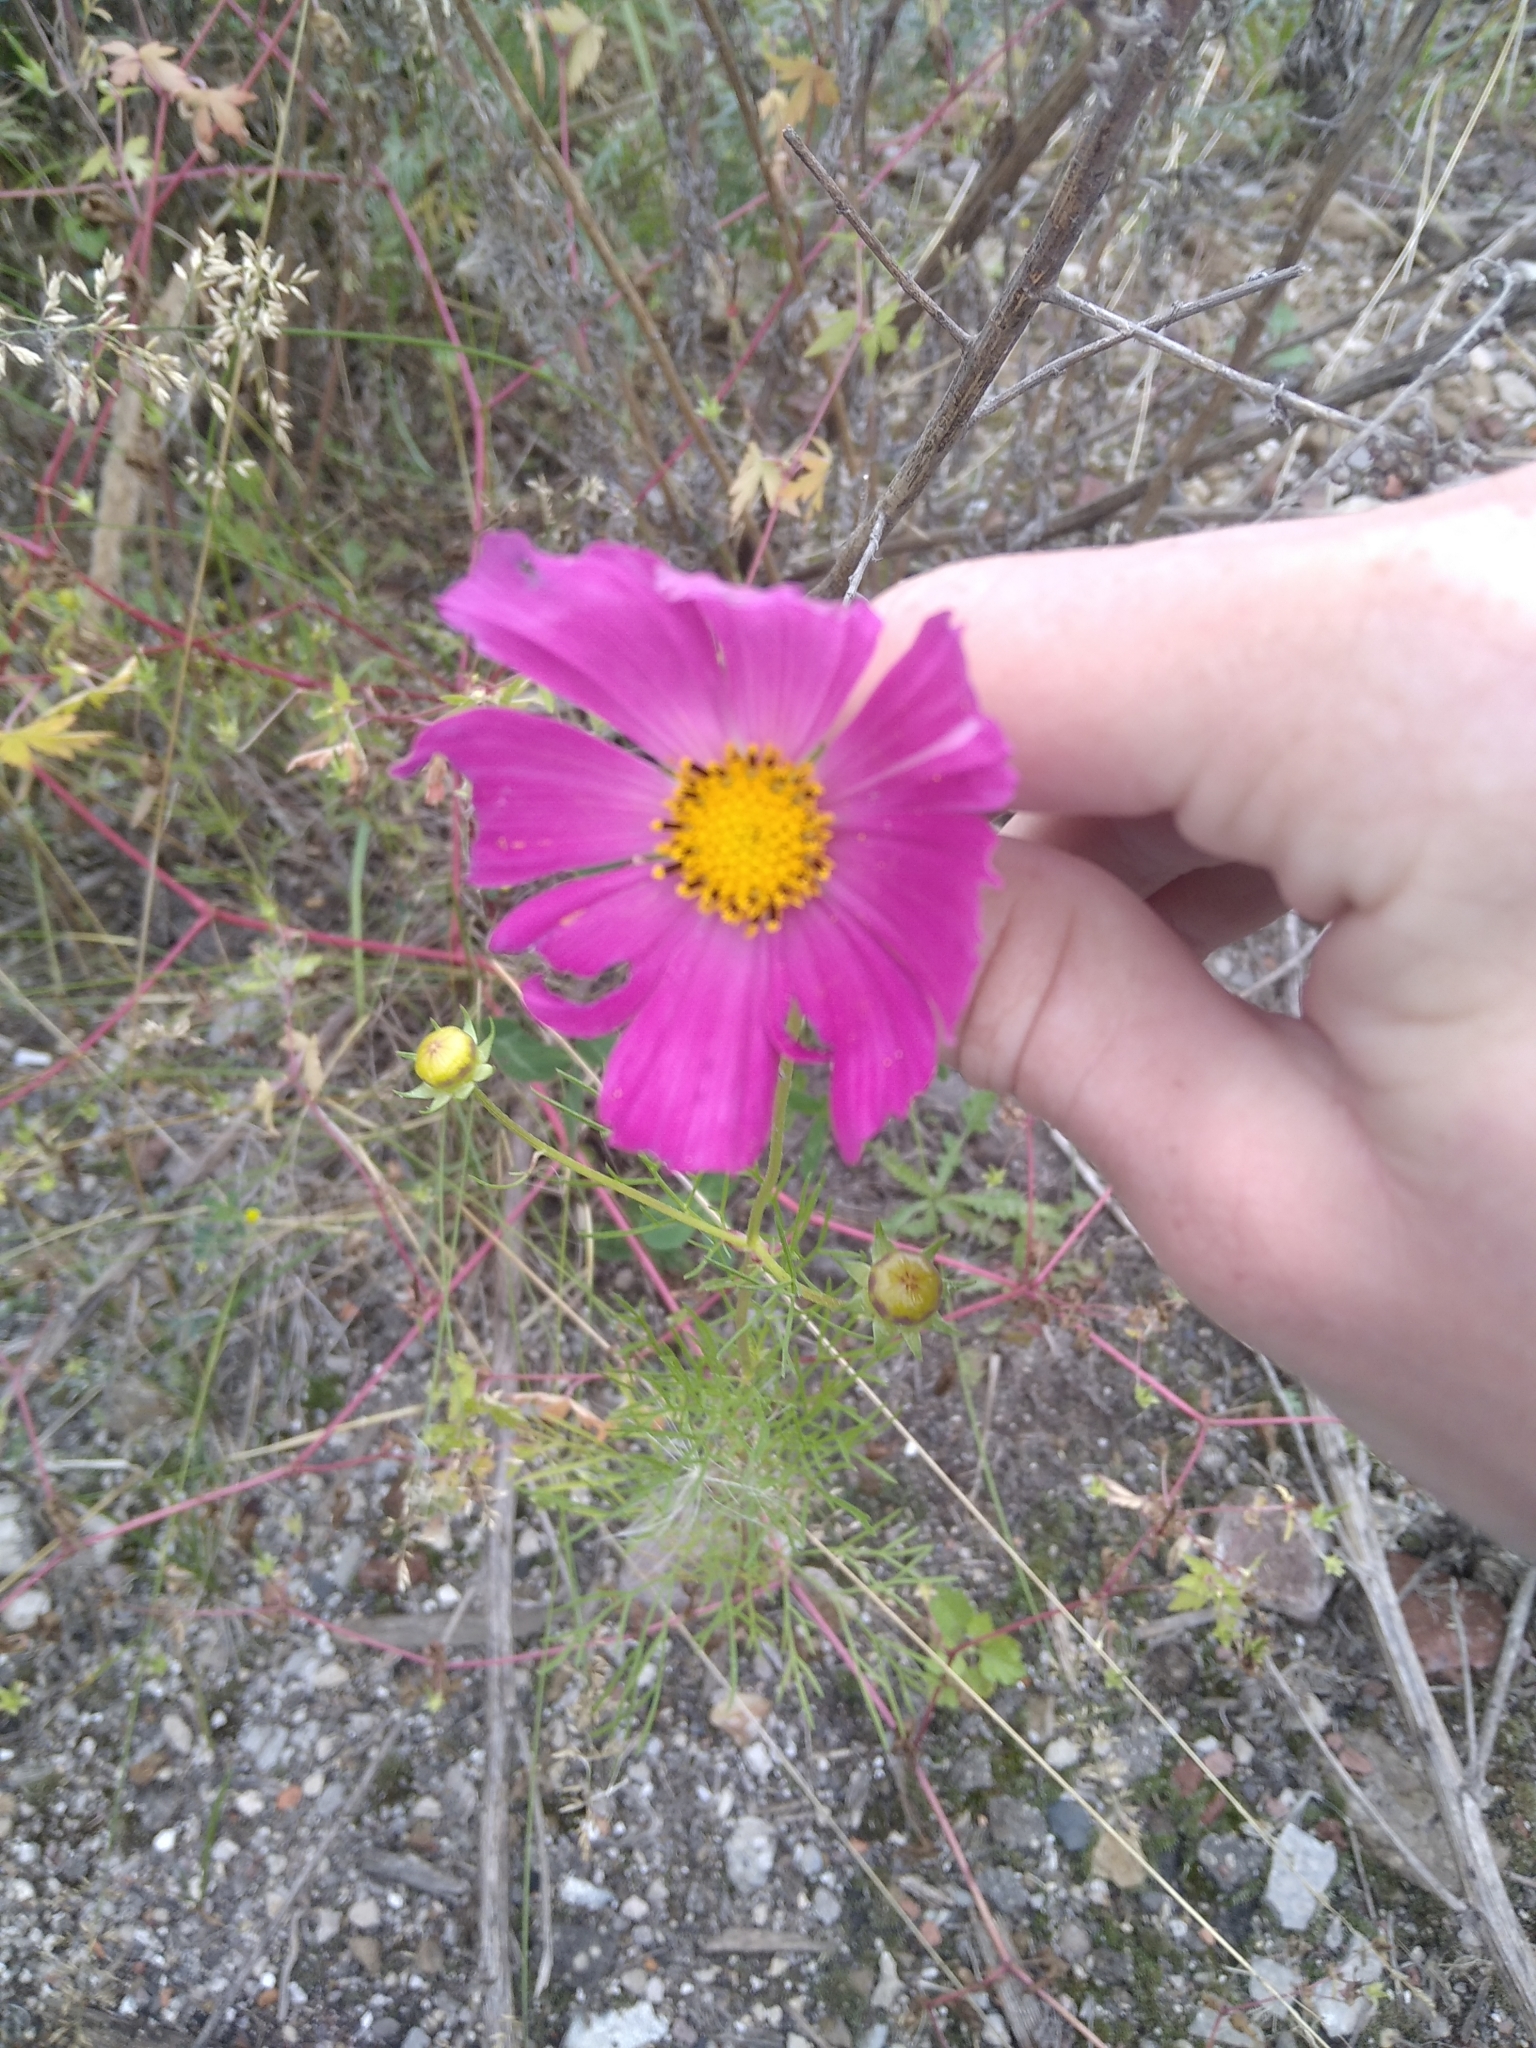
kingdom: Plantae
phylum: Tracheophyta
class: Magnoliopsida
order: Asterales
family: Asteraceae
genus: Cosmos
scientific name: Cosmos bipinnatus
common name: Garden cosmos
